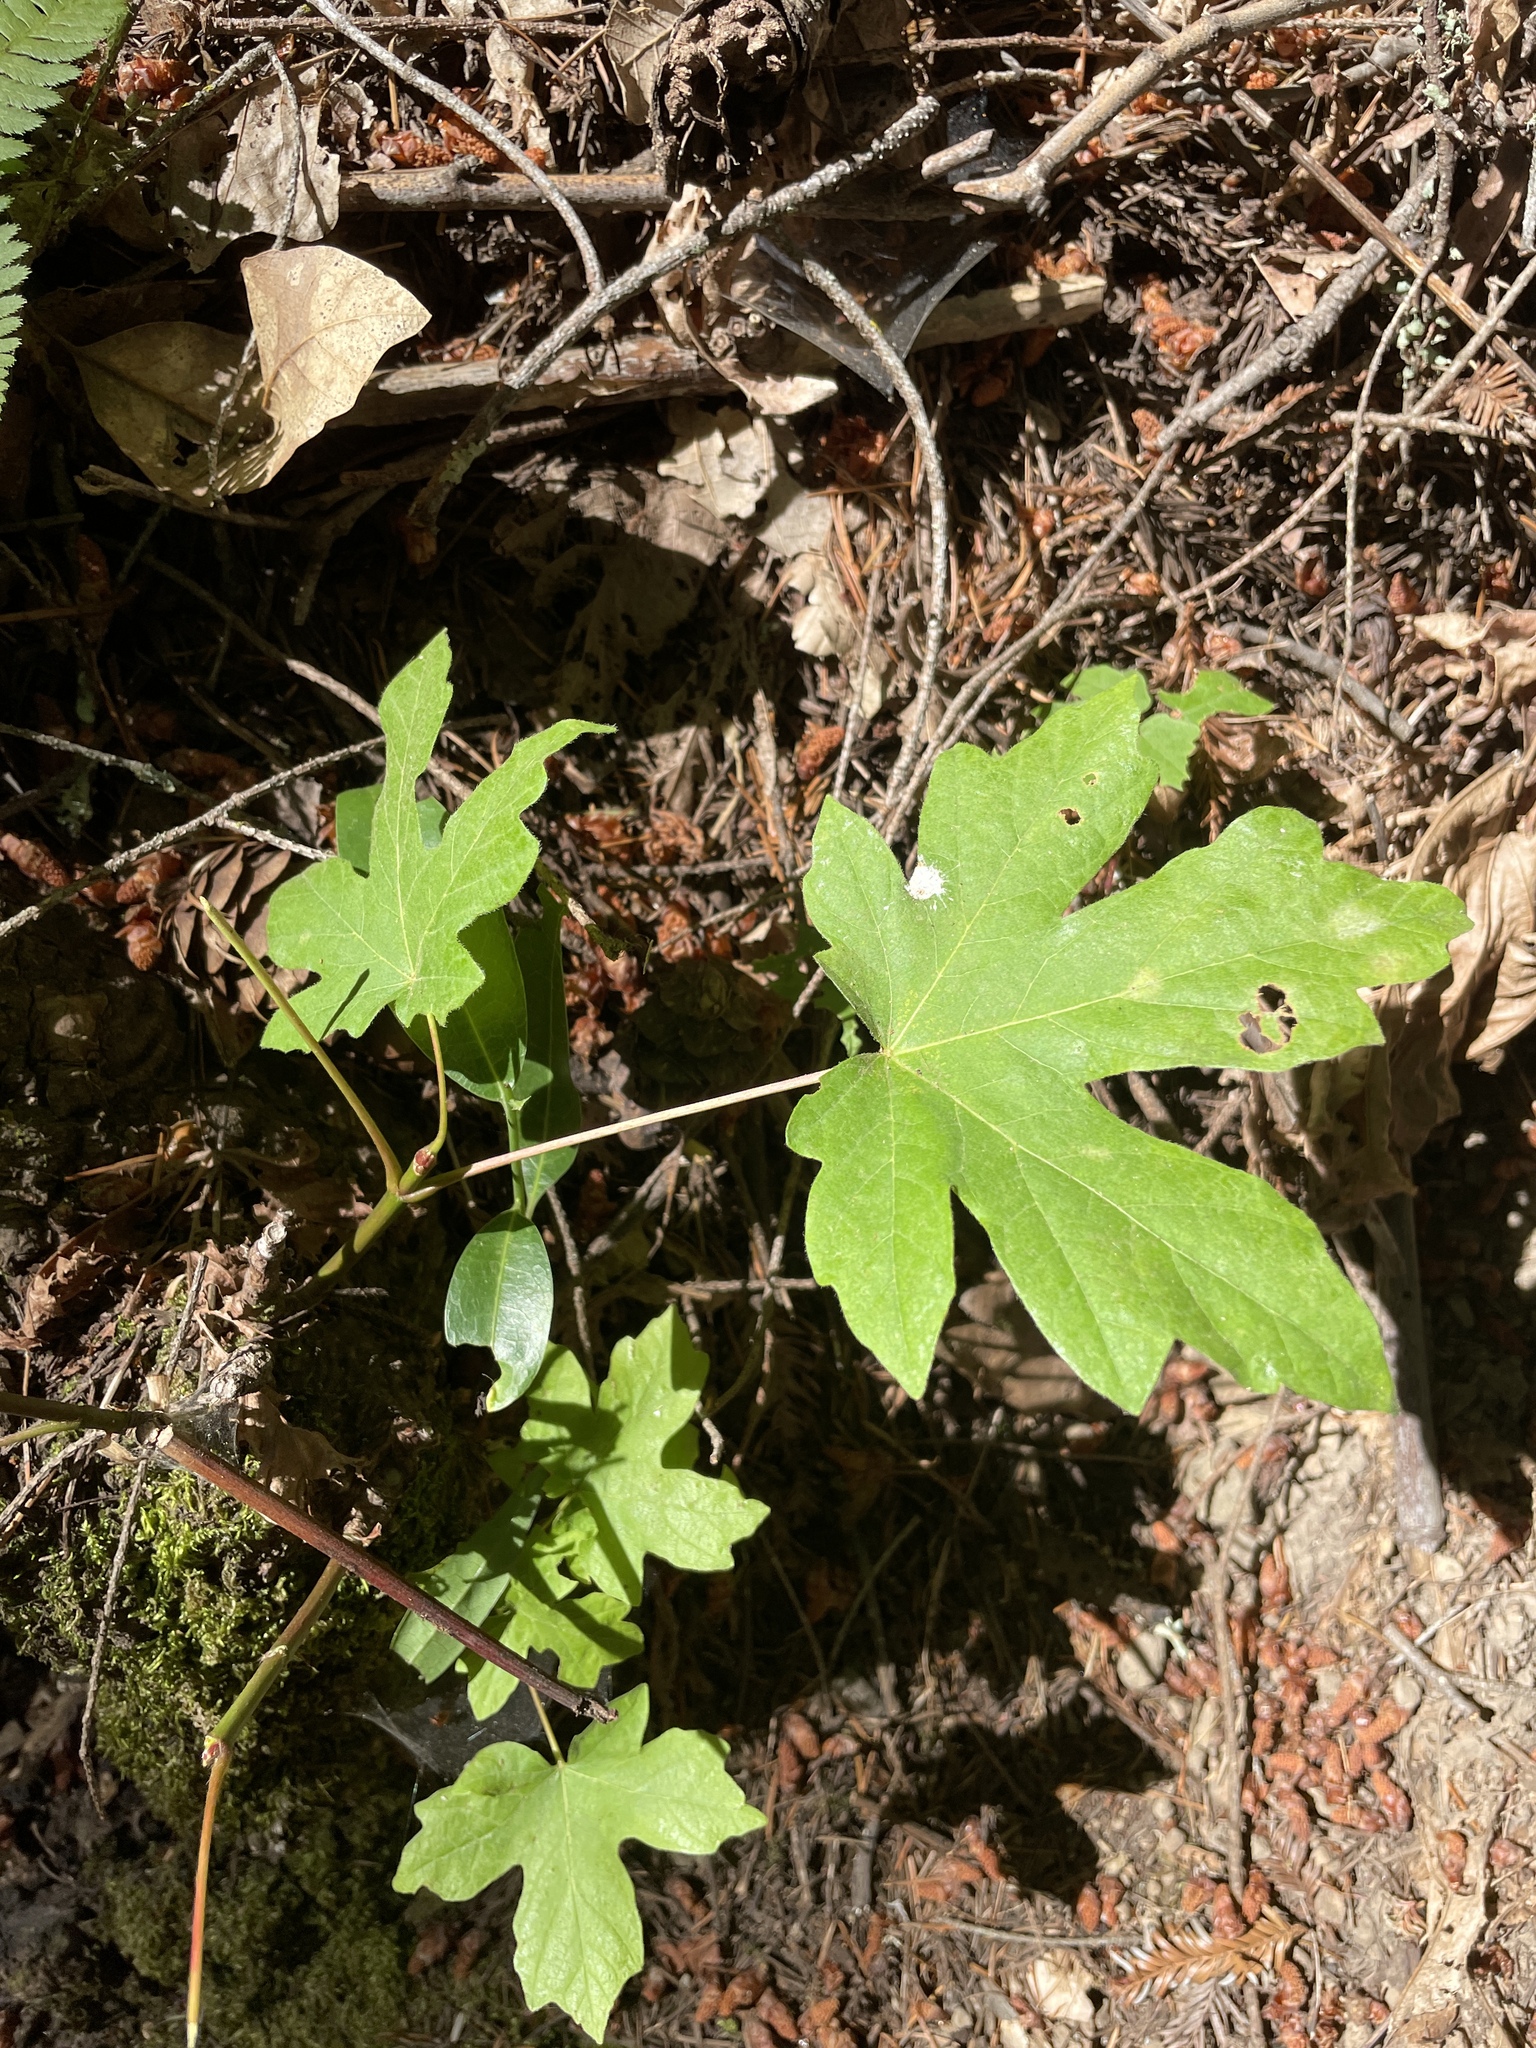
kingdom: Plantae
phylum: Tracheophyta
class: Magnoliopsida
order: Sapindales
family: Sapindaceae
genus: Acer
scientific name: Acer macrophyllum
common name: Oregon maple
